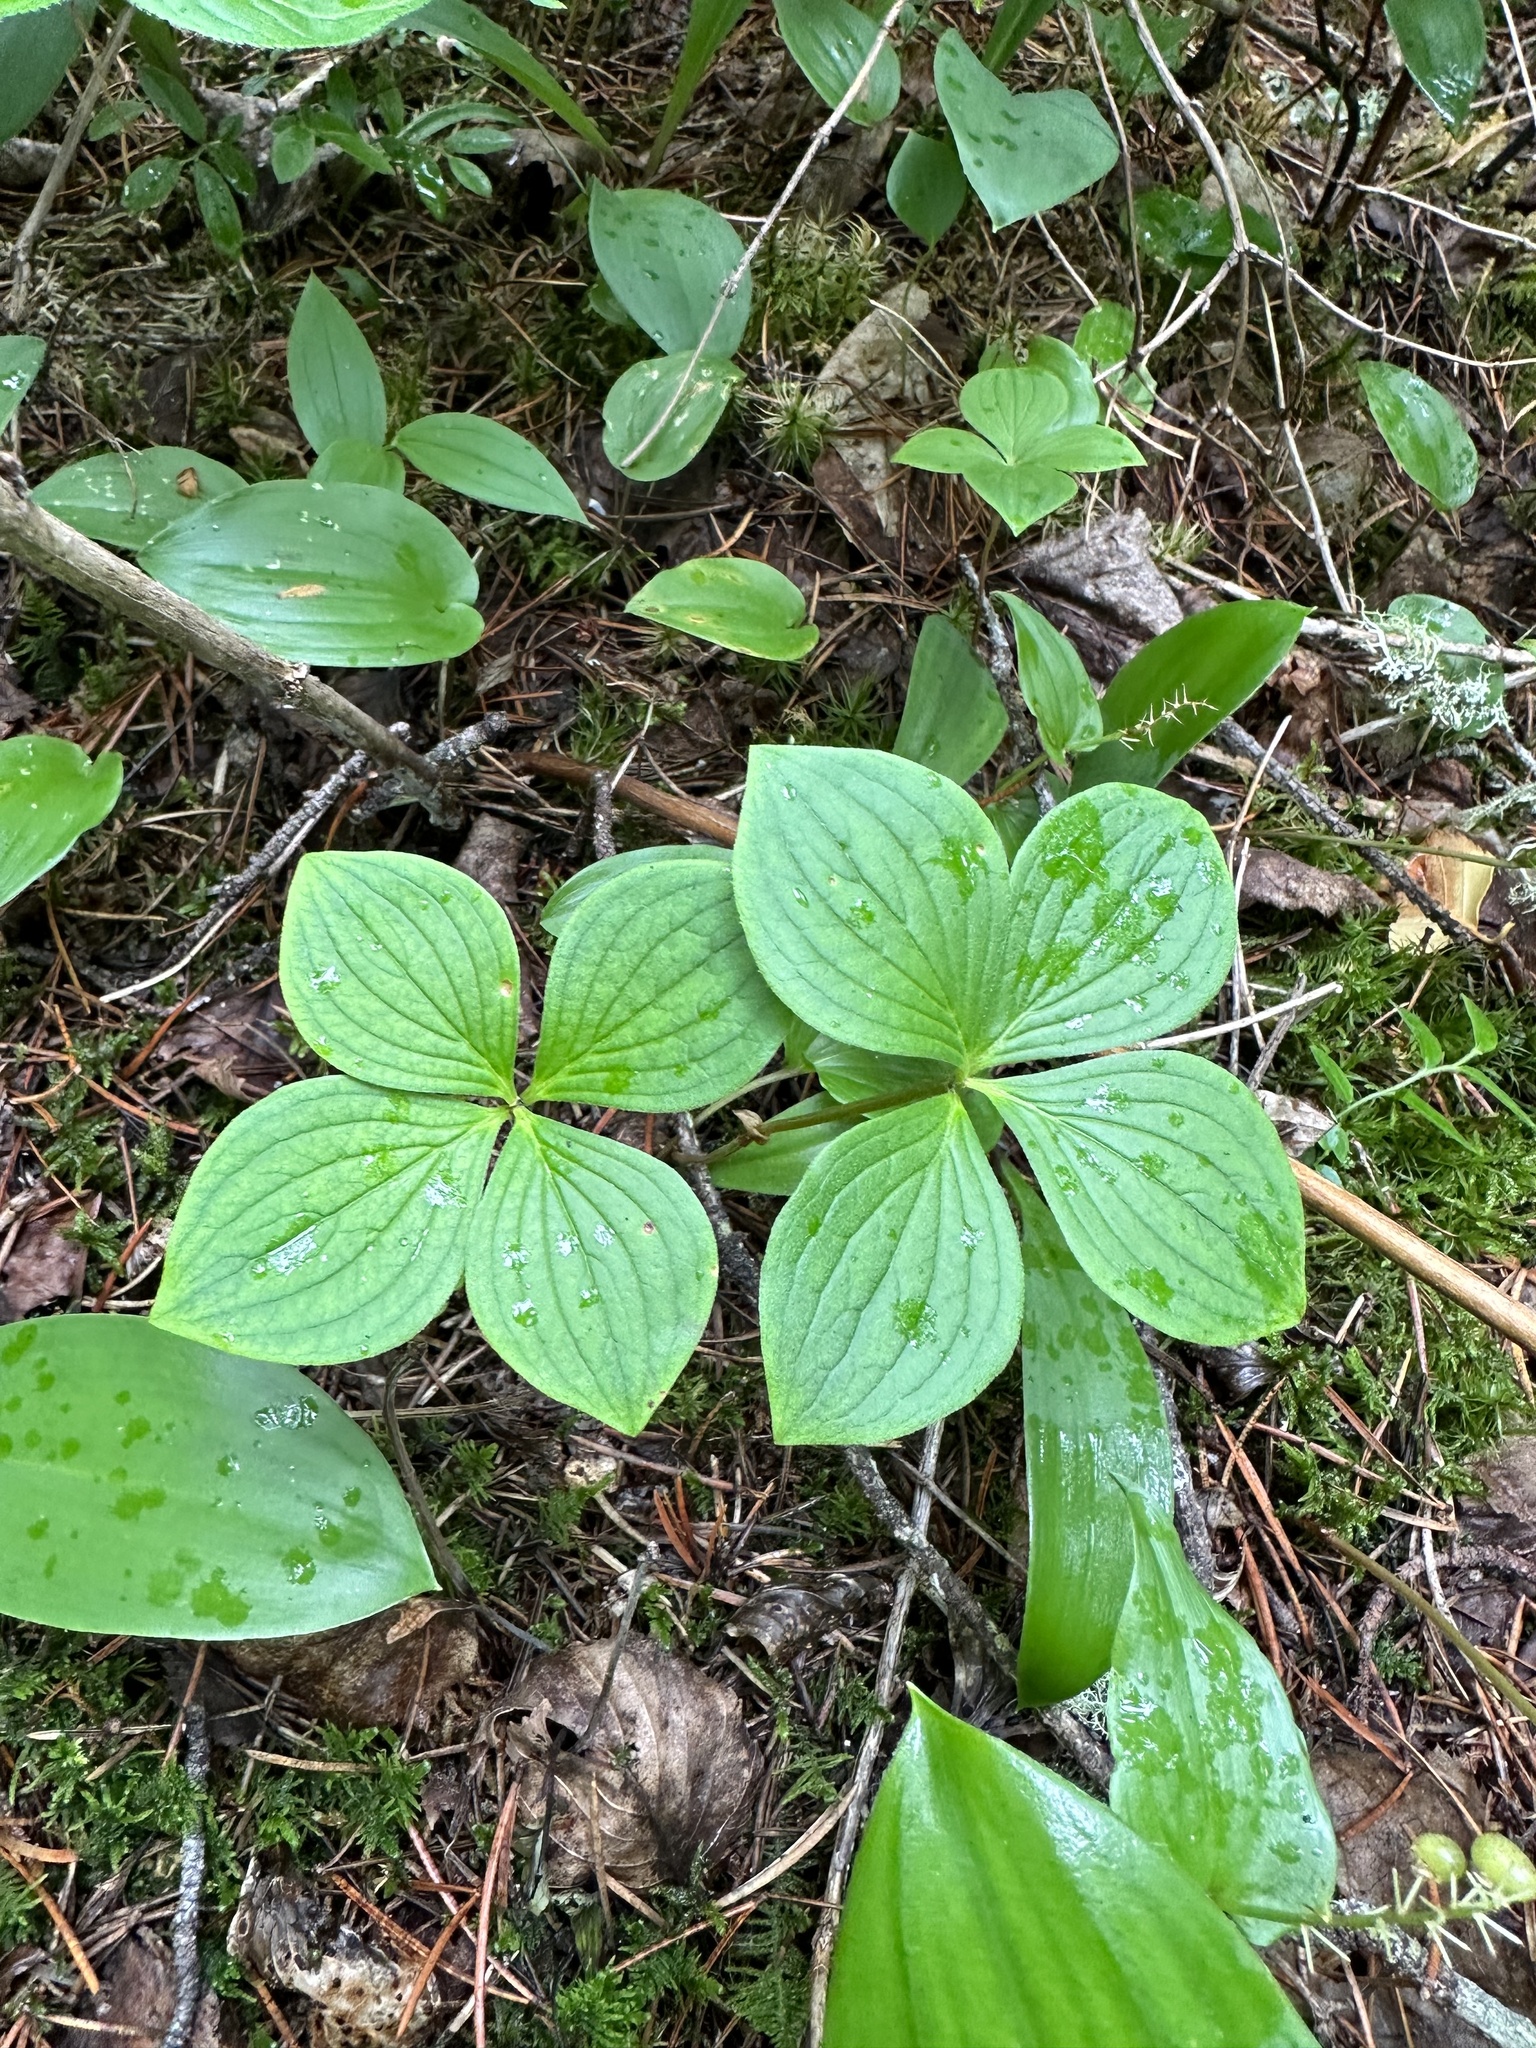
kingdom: Plantae
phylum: Tracheophyta
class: Magnoliopsida
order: Cornales
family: Cornaceae
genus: Cornus
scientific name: Cornus canadensis
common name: Creeping dogwood
